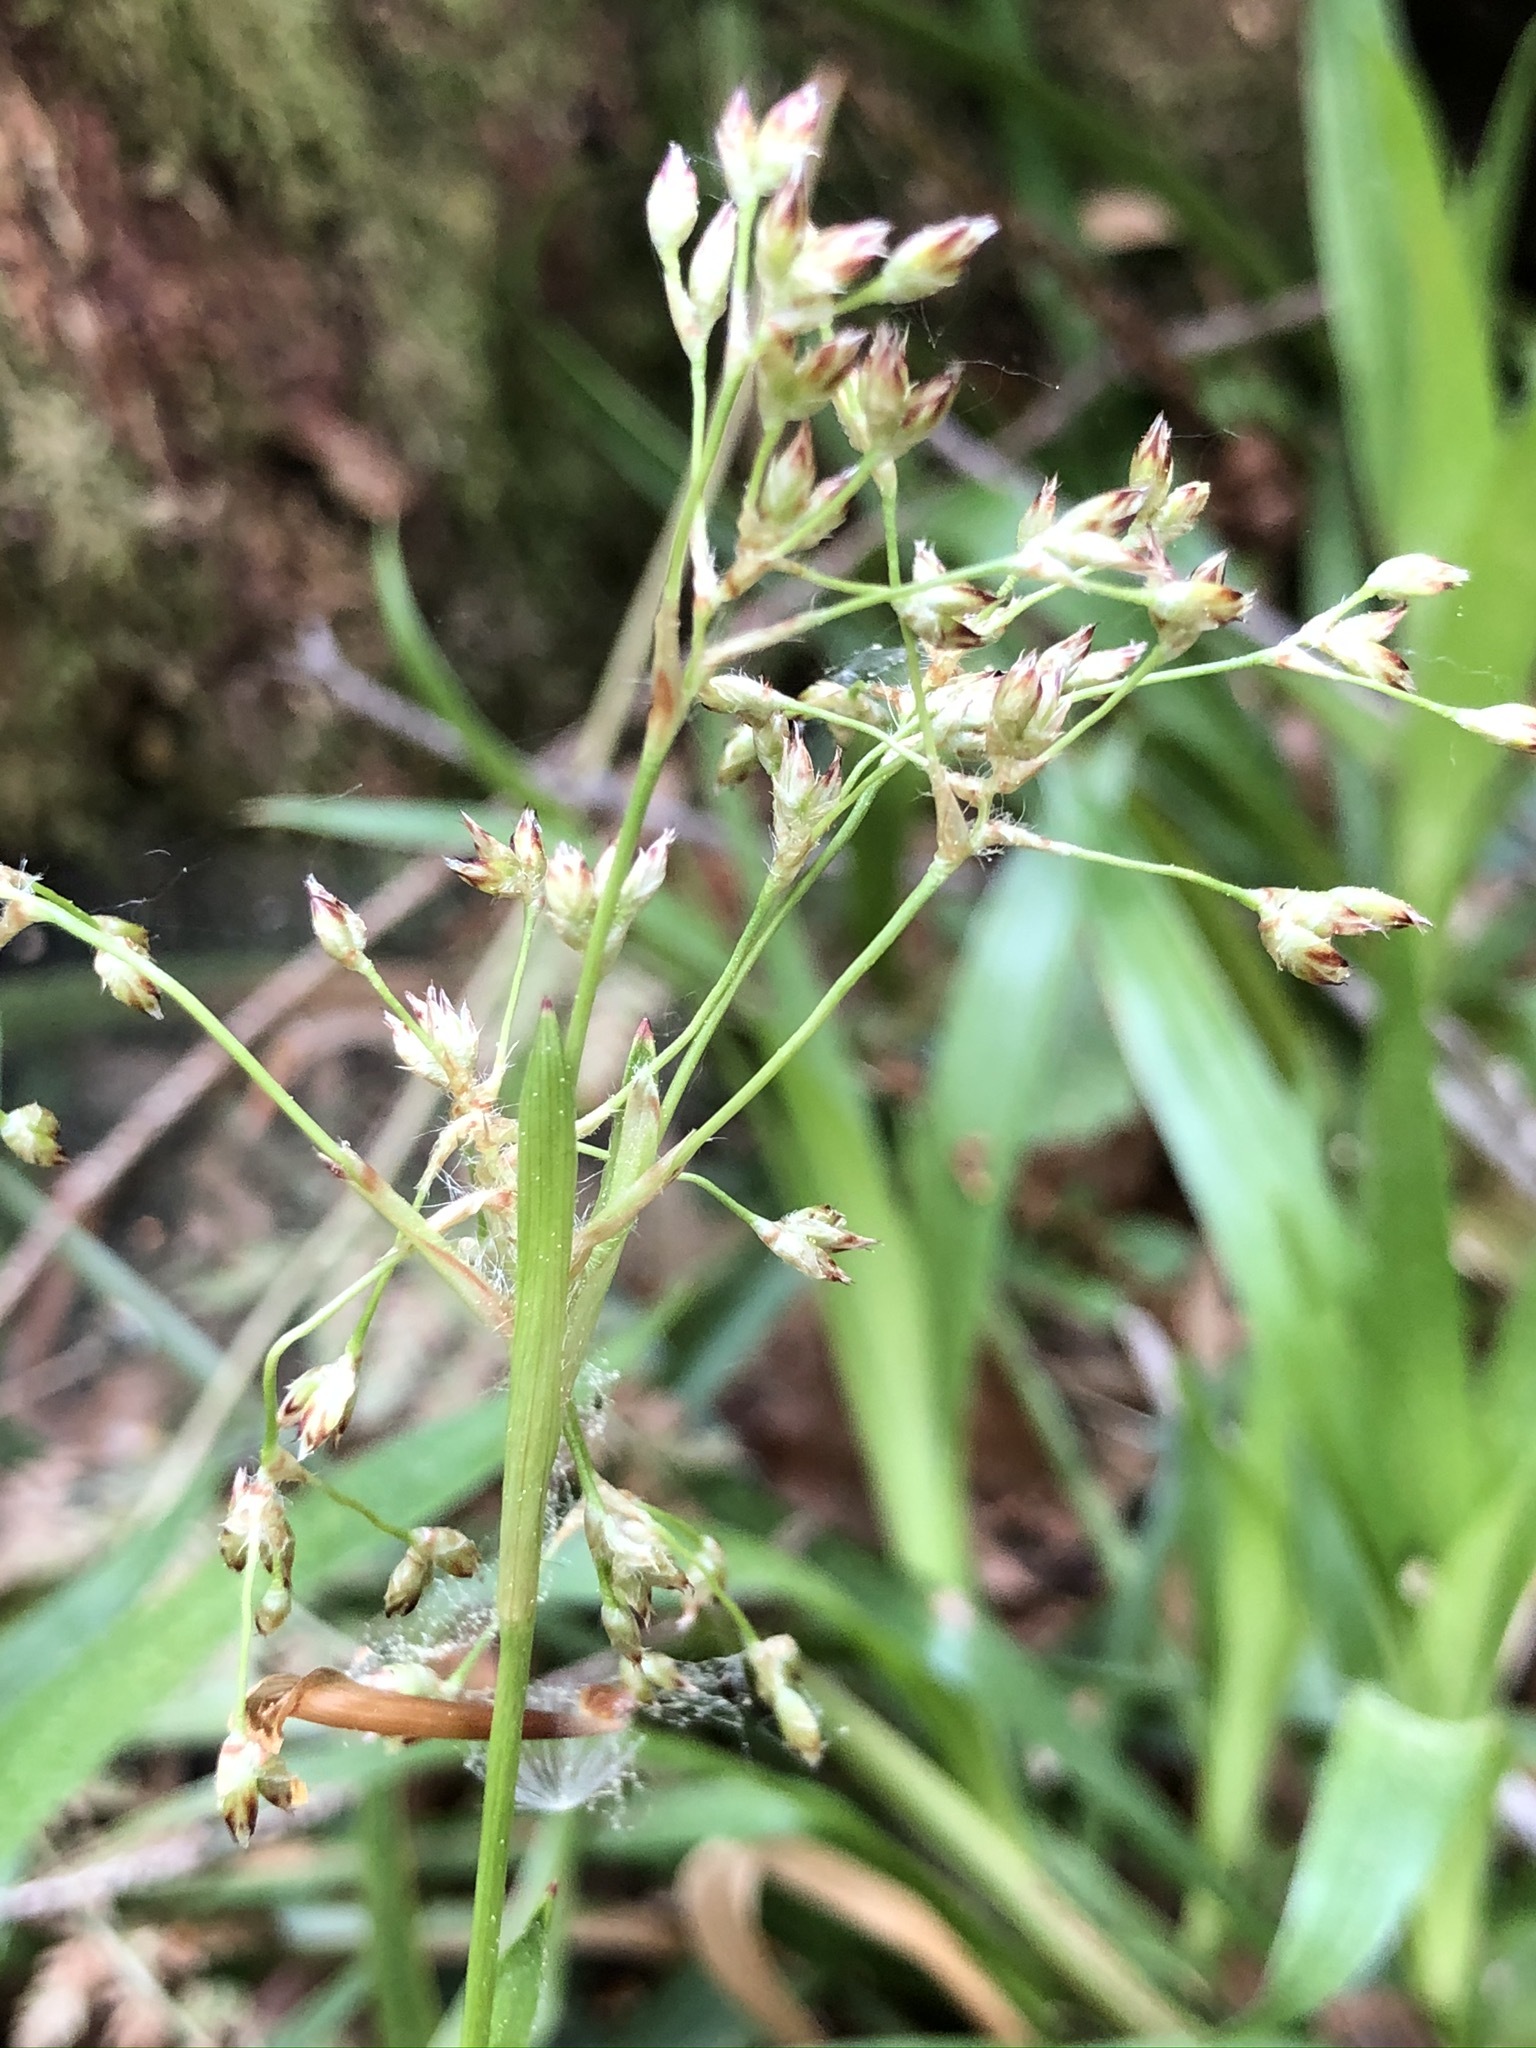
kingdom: Plantae
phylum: Tracheophyta
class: Liliopsida
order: Poales
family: Juncaceae
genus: Luzula
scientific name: Luzula sylvatica
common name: Great wood-rush
